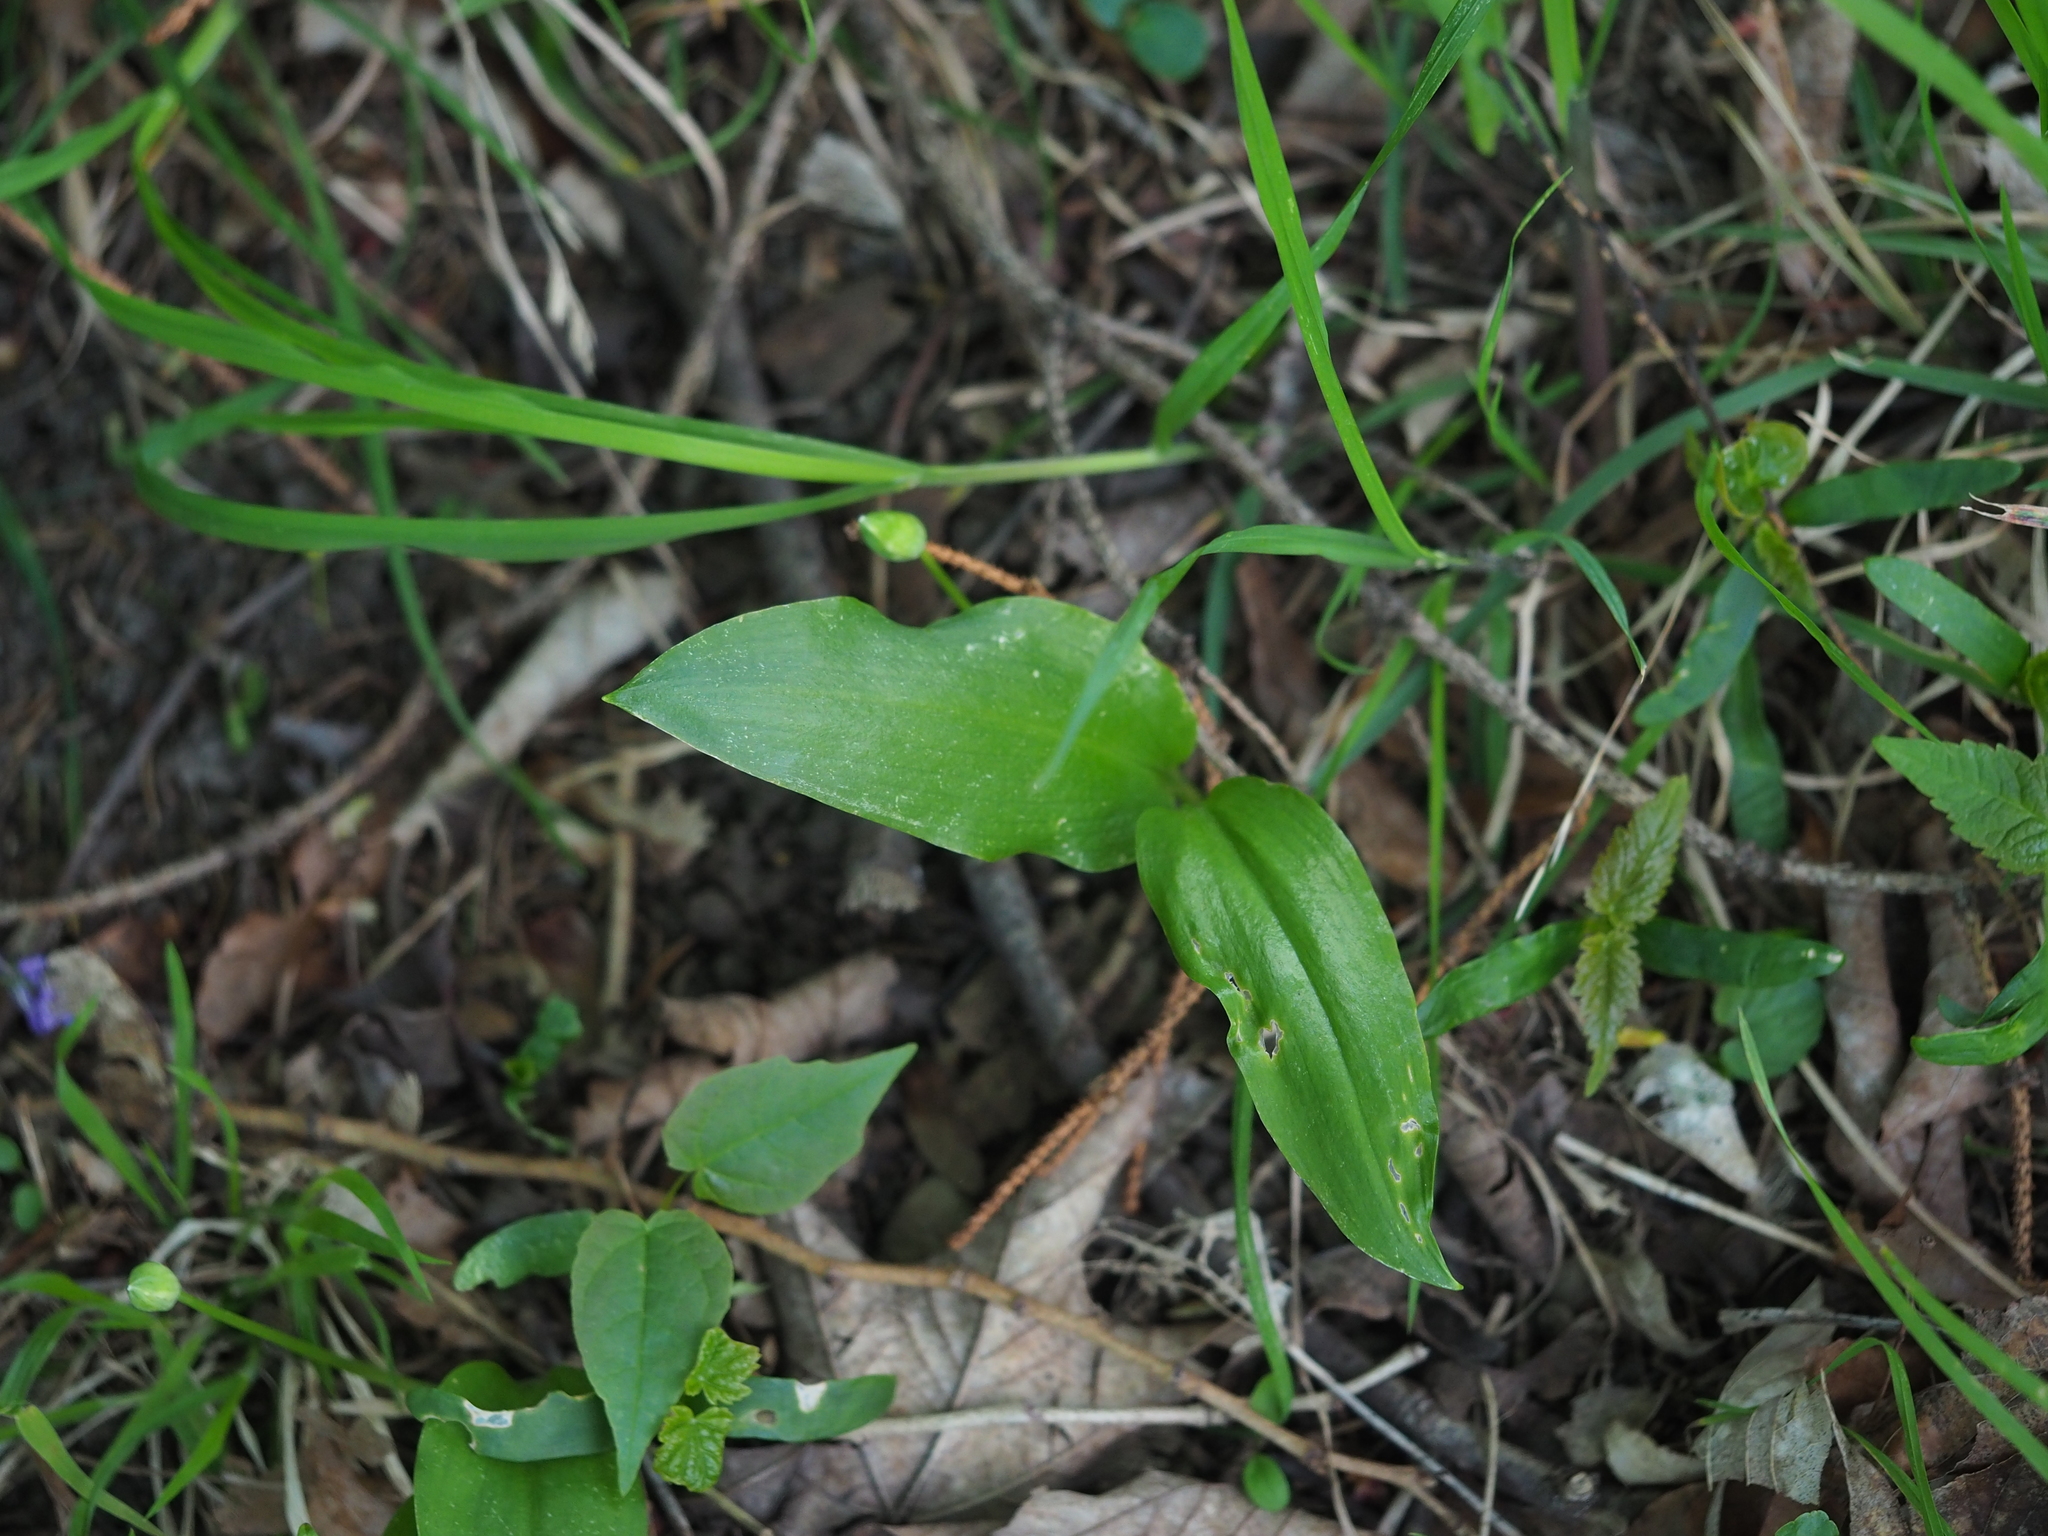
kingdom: Plantae
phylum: Tracheophyta
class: Liliopsida
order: Asparagales
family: Amaryllidaceae
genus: Allium
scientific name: Allium ursinum
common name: Ramsons
